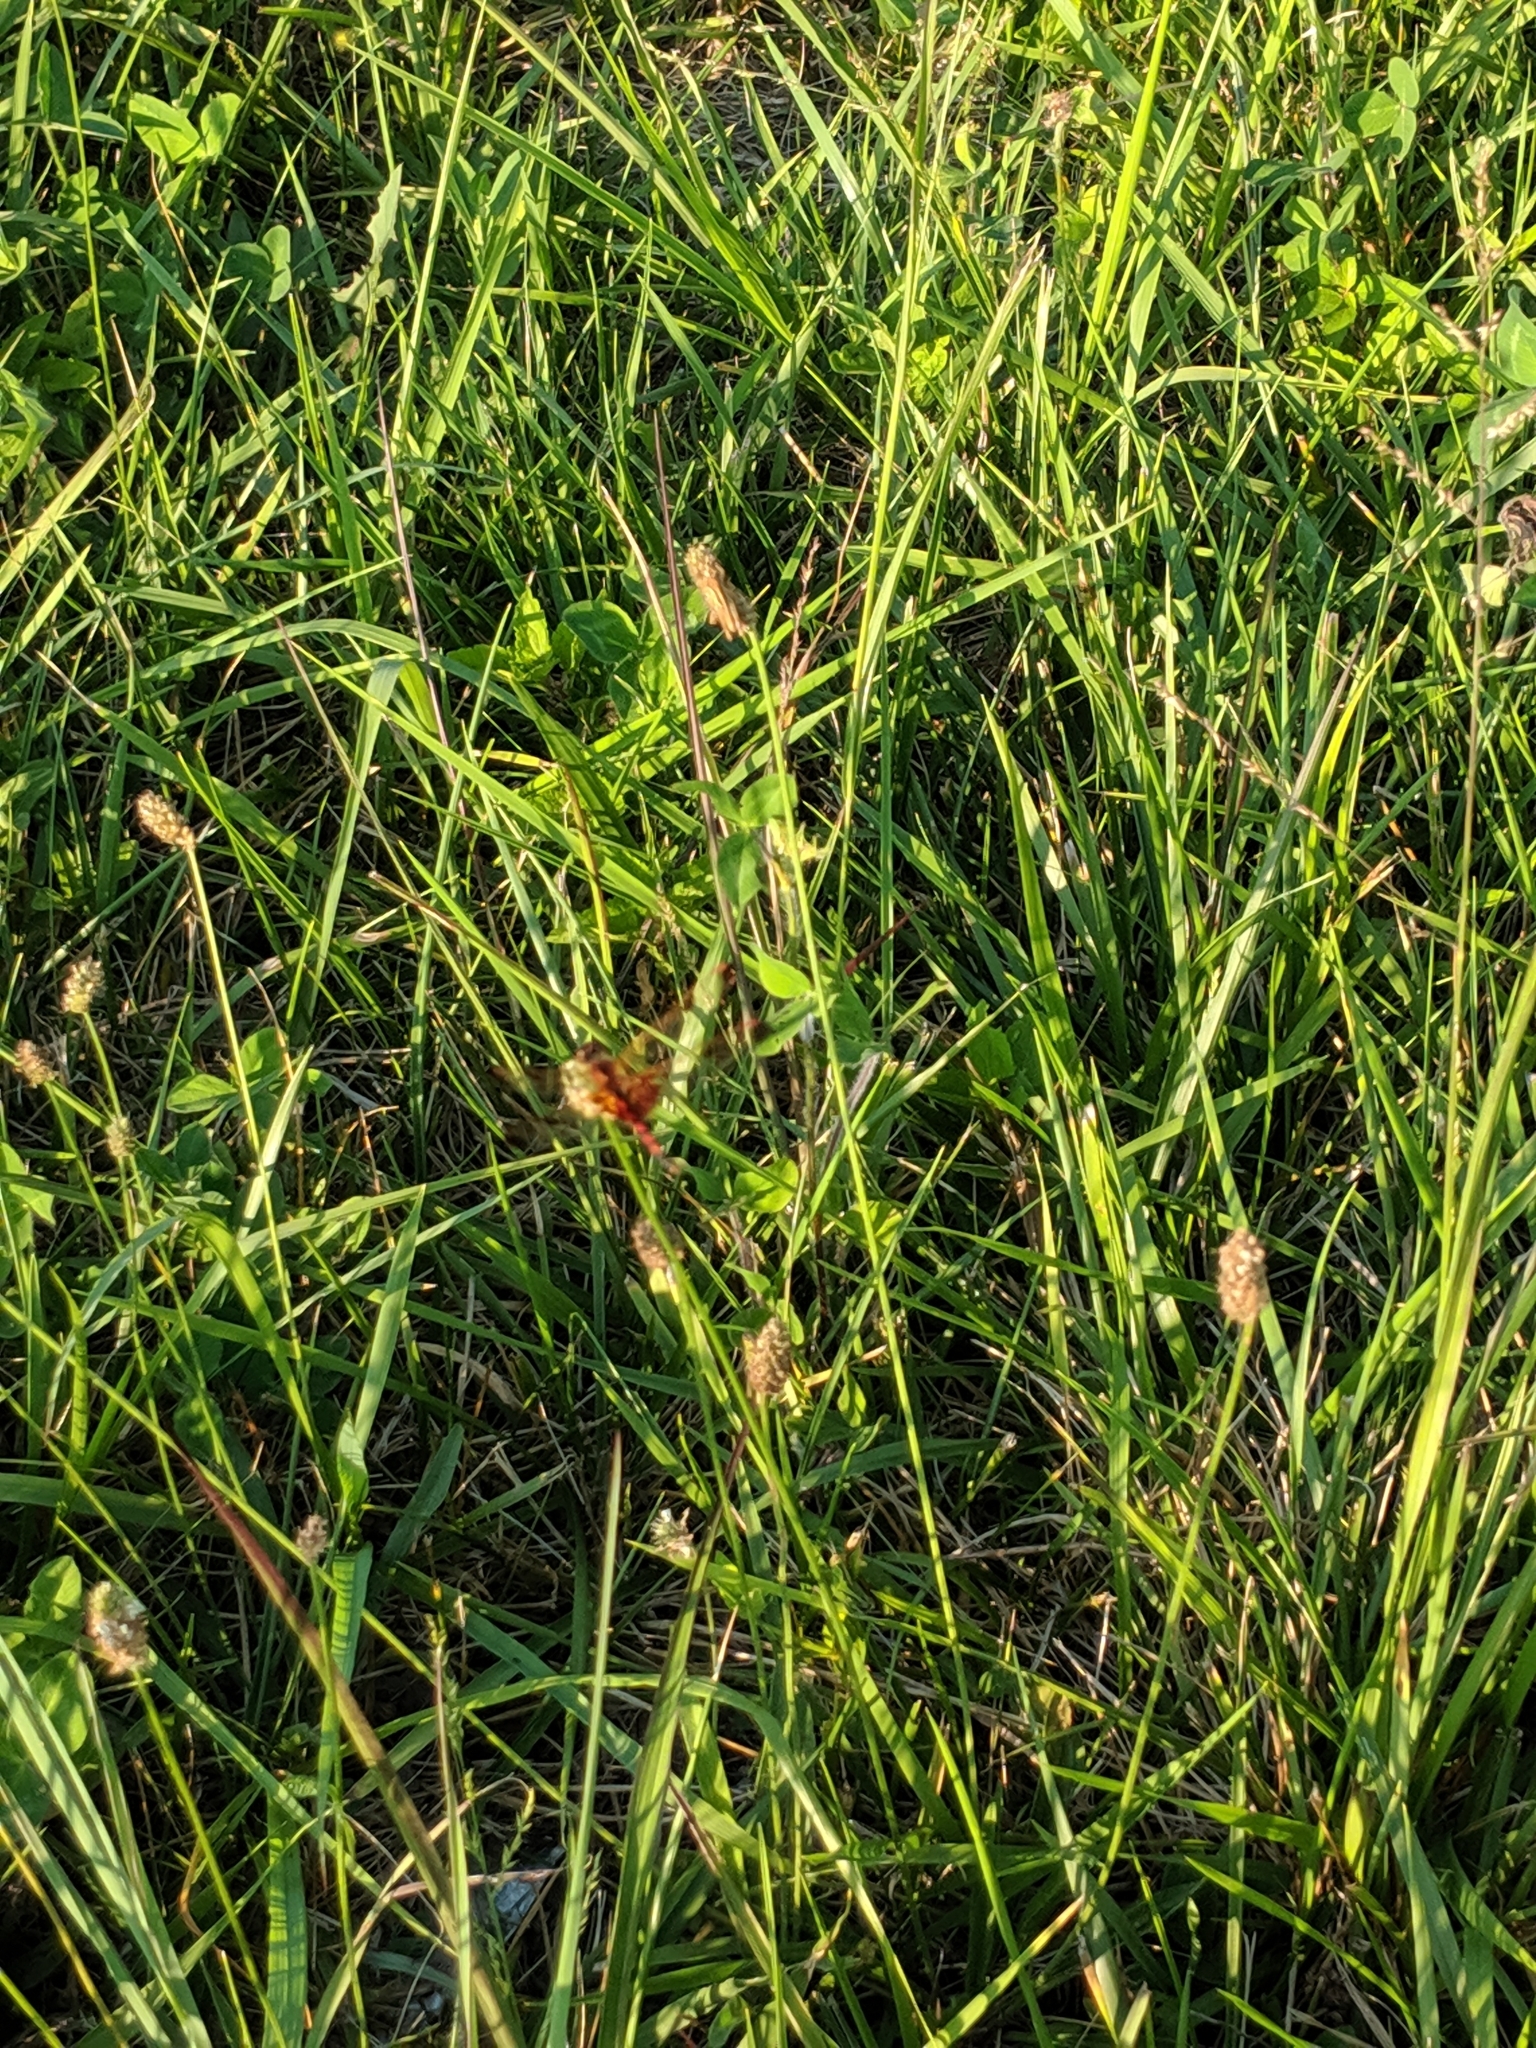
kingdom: Animalia
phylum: Arthropoda
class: Insecta
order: Odonata
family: Libellulidae
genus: Celithemis
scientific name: Celithemis elisa
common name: Calico pennant
